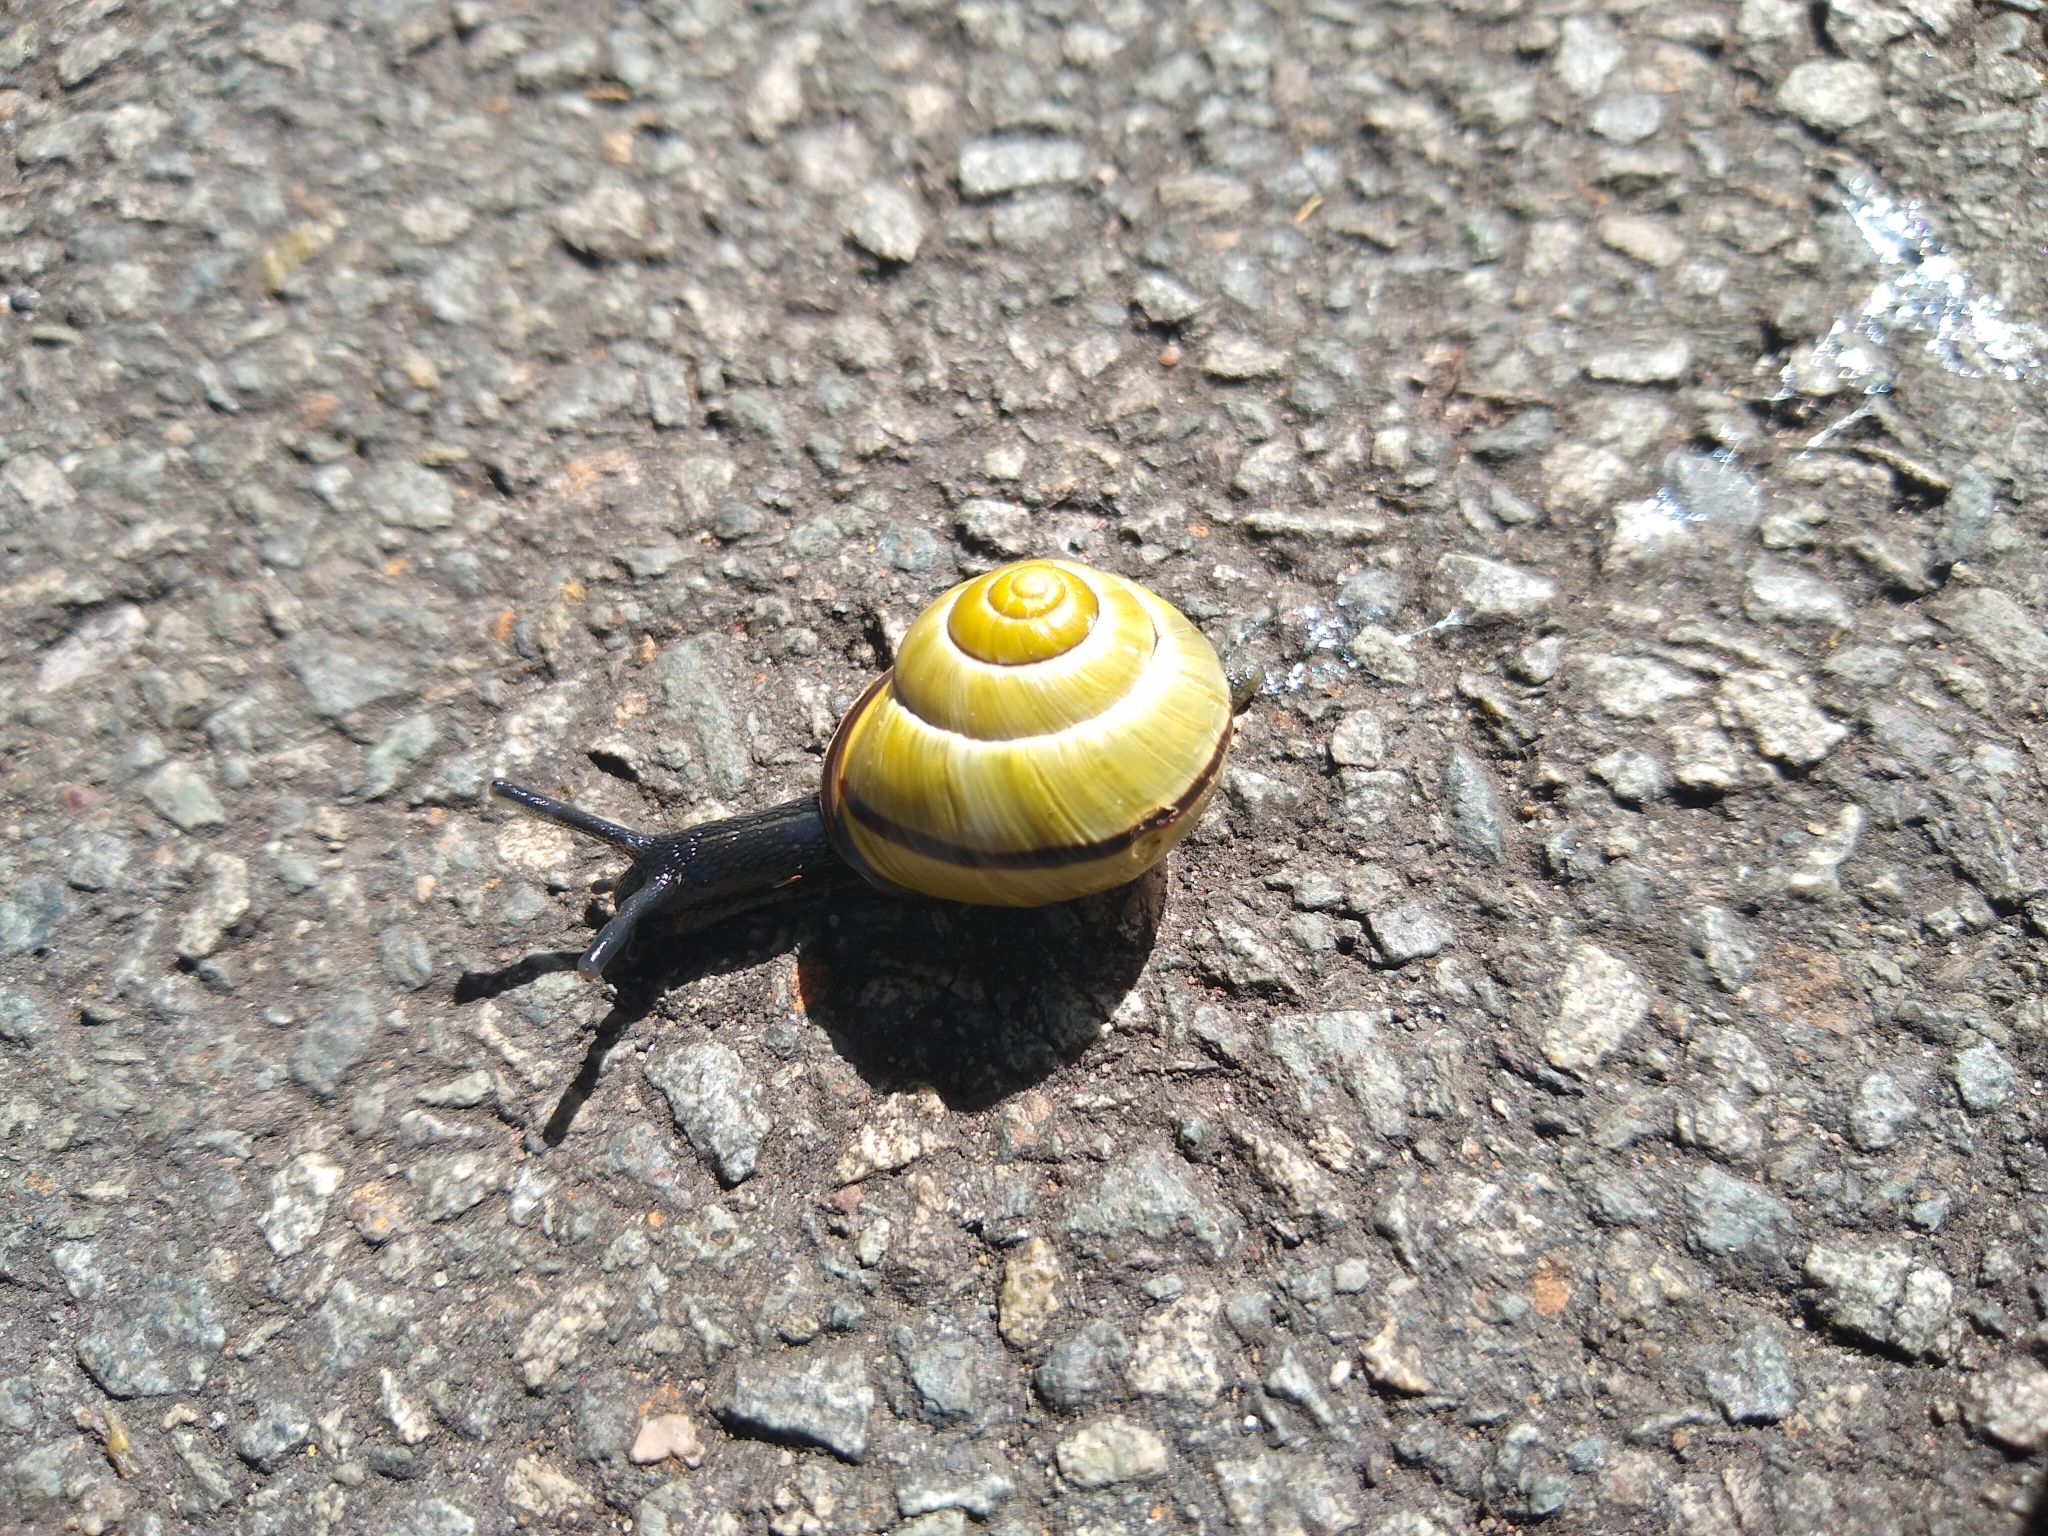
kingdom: Animalia
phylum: Mollusca
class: Gastropoda
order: Stylommatophora
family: Helicidae
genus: Cepaea
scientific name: Cepaea nemoralis
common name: Grovesnail
